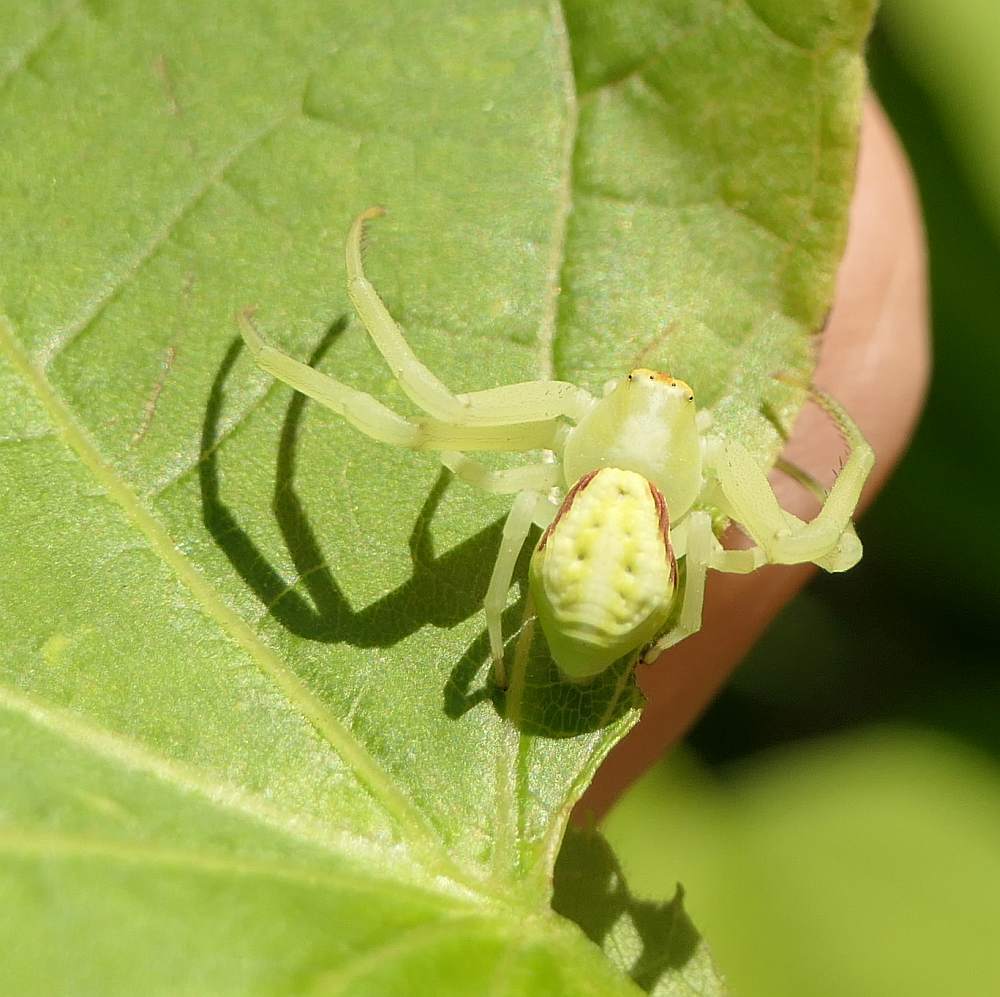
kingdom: Animalia
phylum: Arthropoda
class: Arachnida
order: Araneae
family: Thomisidae
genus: Misumena
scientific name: Misumena vatia
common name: Goldenrod crab spider
